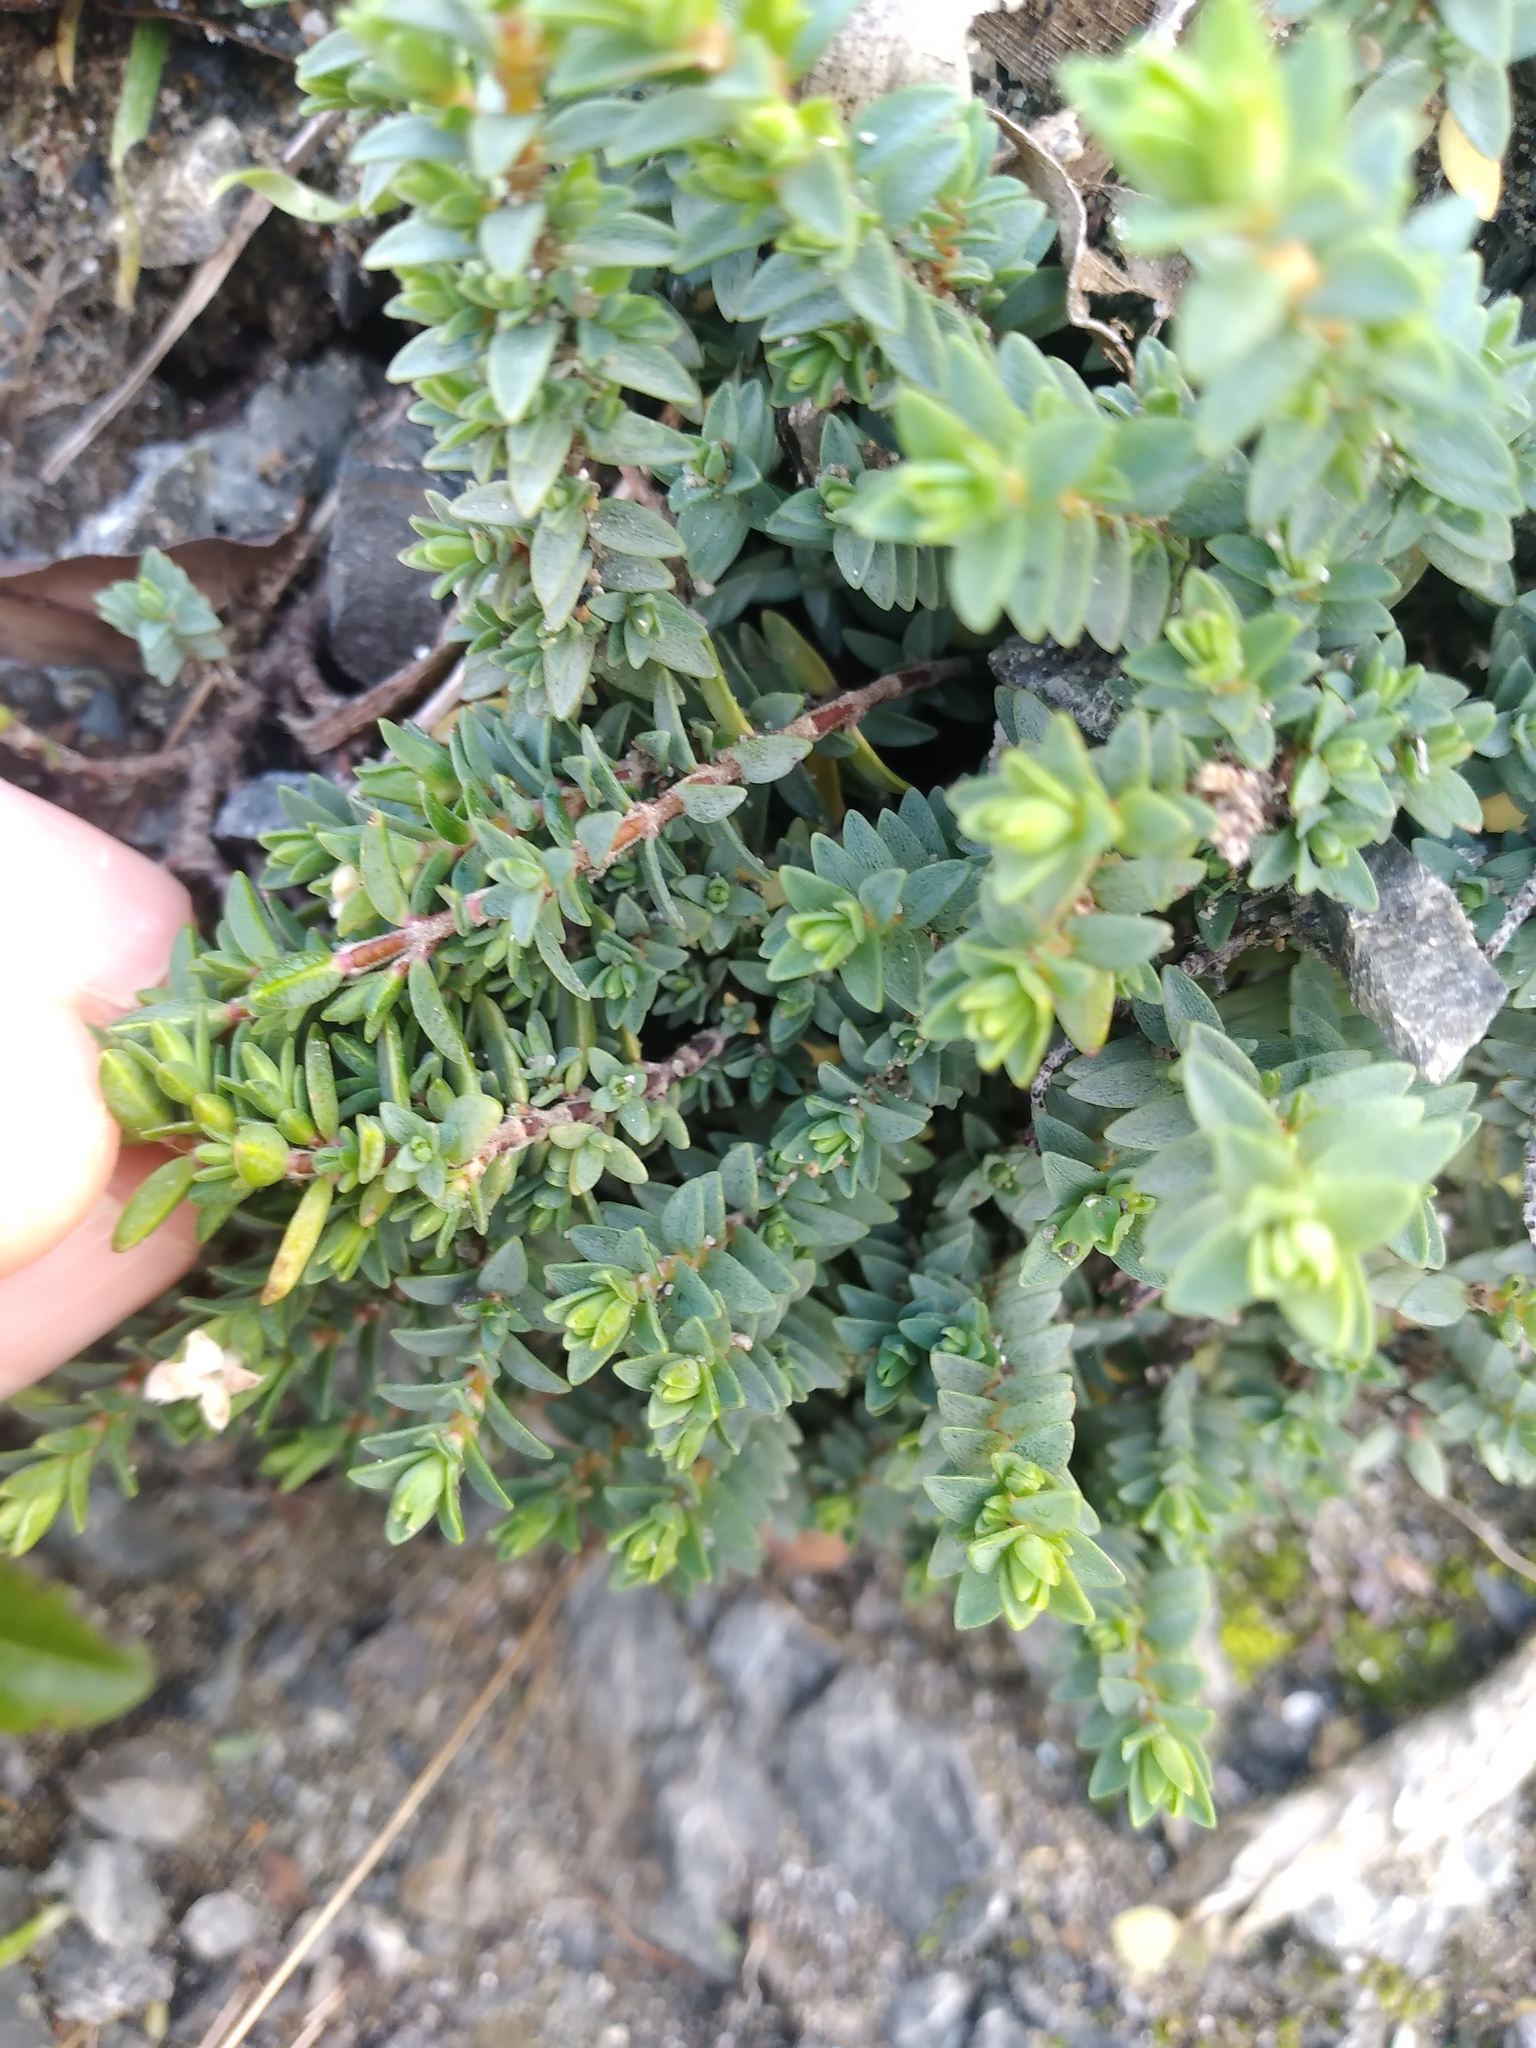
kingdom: Plantae
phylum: Tracheophyta
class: Magnoliopsida
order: Malvales
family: Thymelaeaceae
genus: Pimelea
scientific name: Pimelea prostrata
